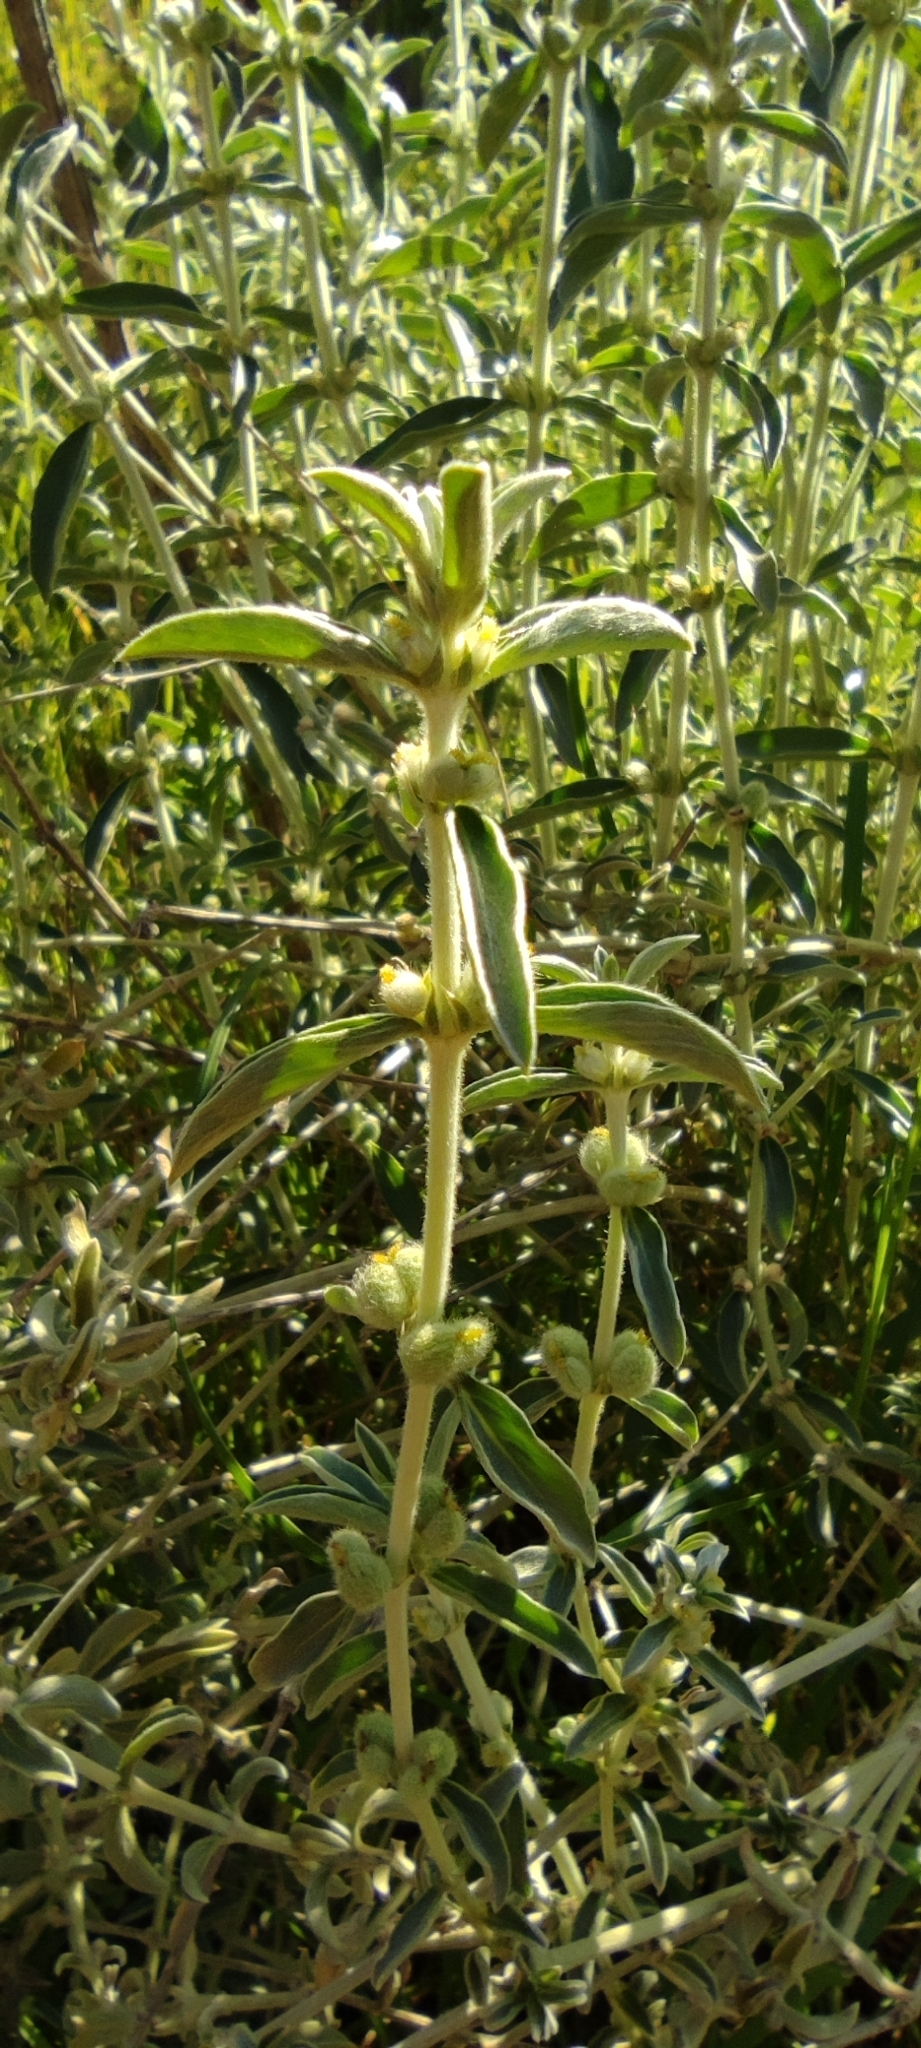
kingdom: Plantae
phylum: Tracheophyta
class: Magnoliopsida
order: Malpighiales
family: Euphorbiaceae
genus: Mercurialis
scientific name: Mercurialis tomentosa
